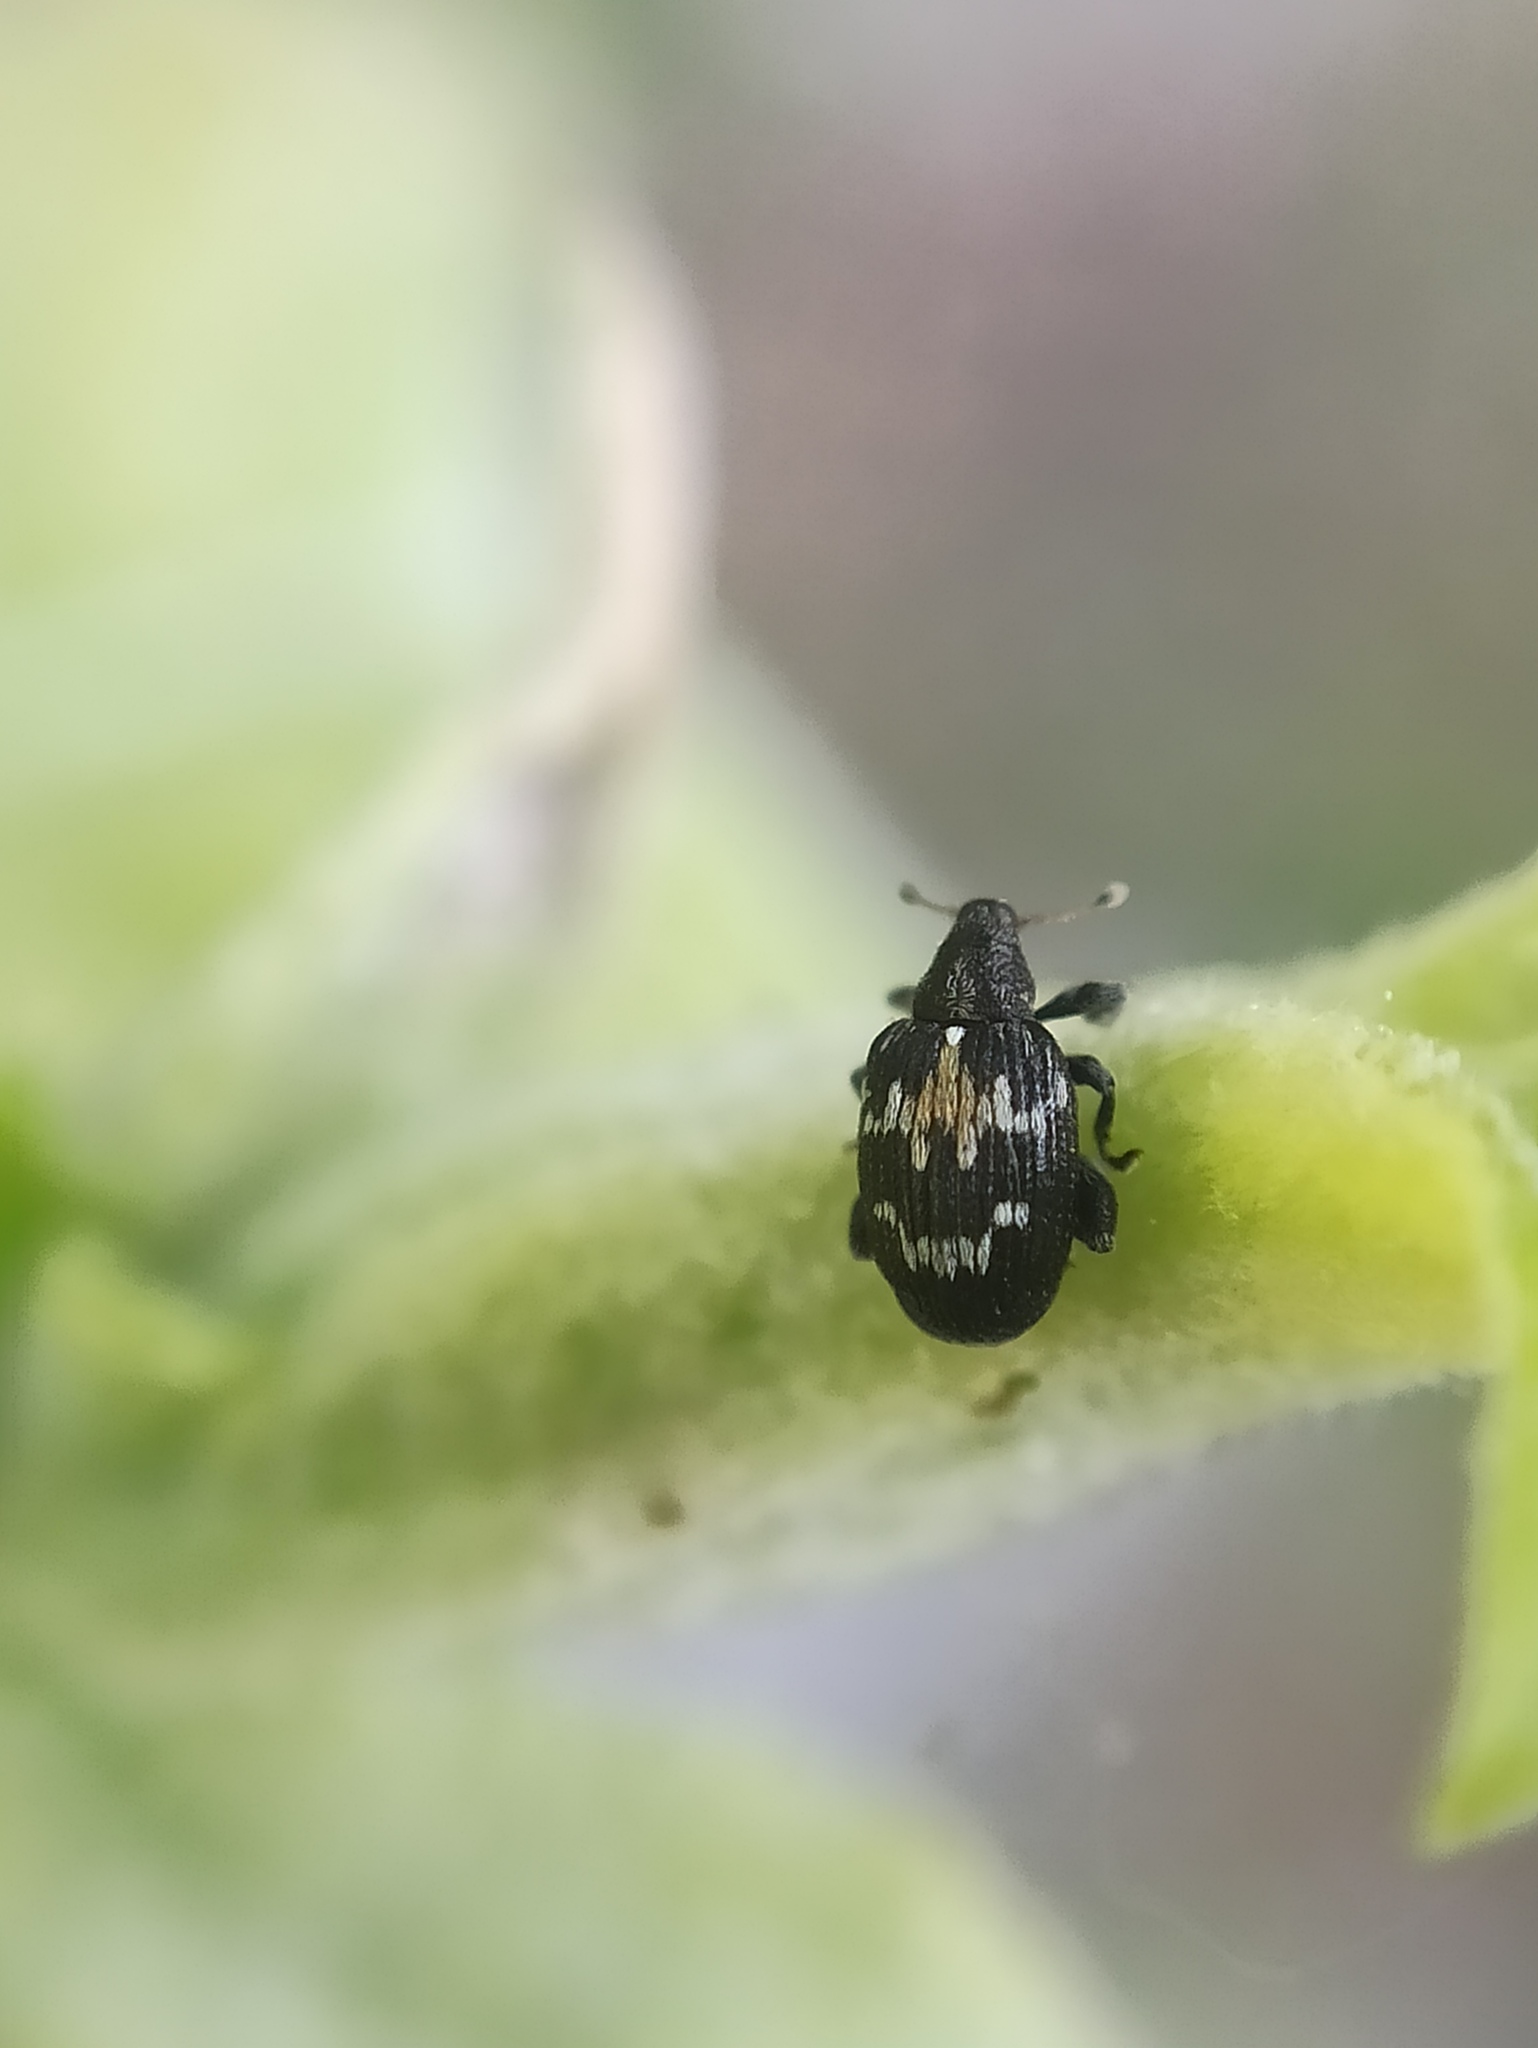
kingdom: Animalia
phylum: Arthropoda
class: Insecta
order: Coleoptera
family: Curculionidae
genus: Tachyerges
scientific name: Tachyerges salicis
